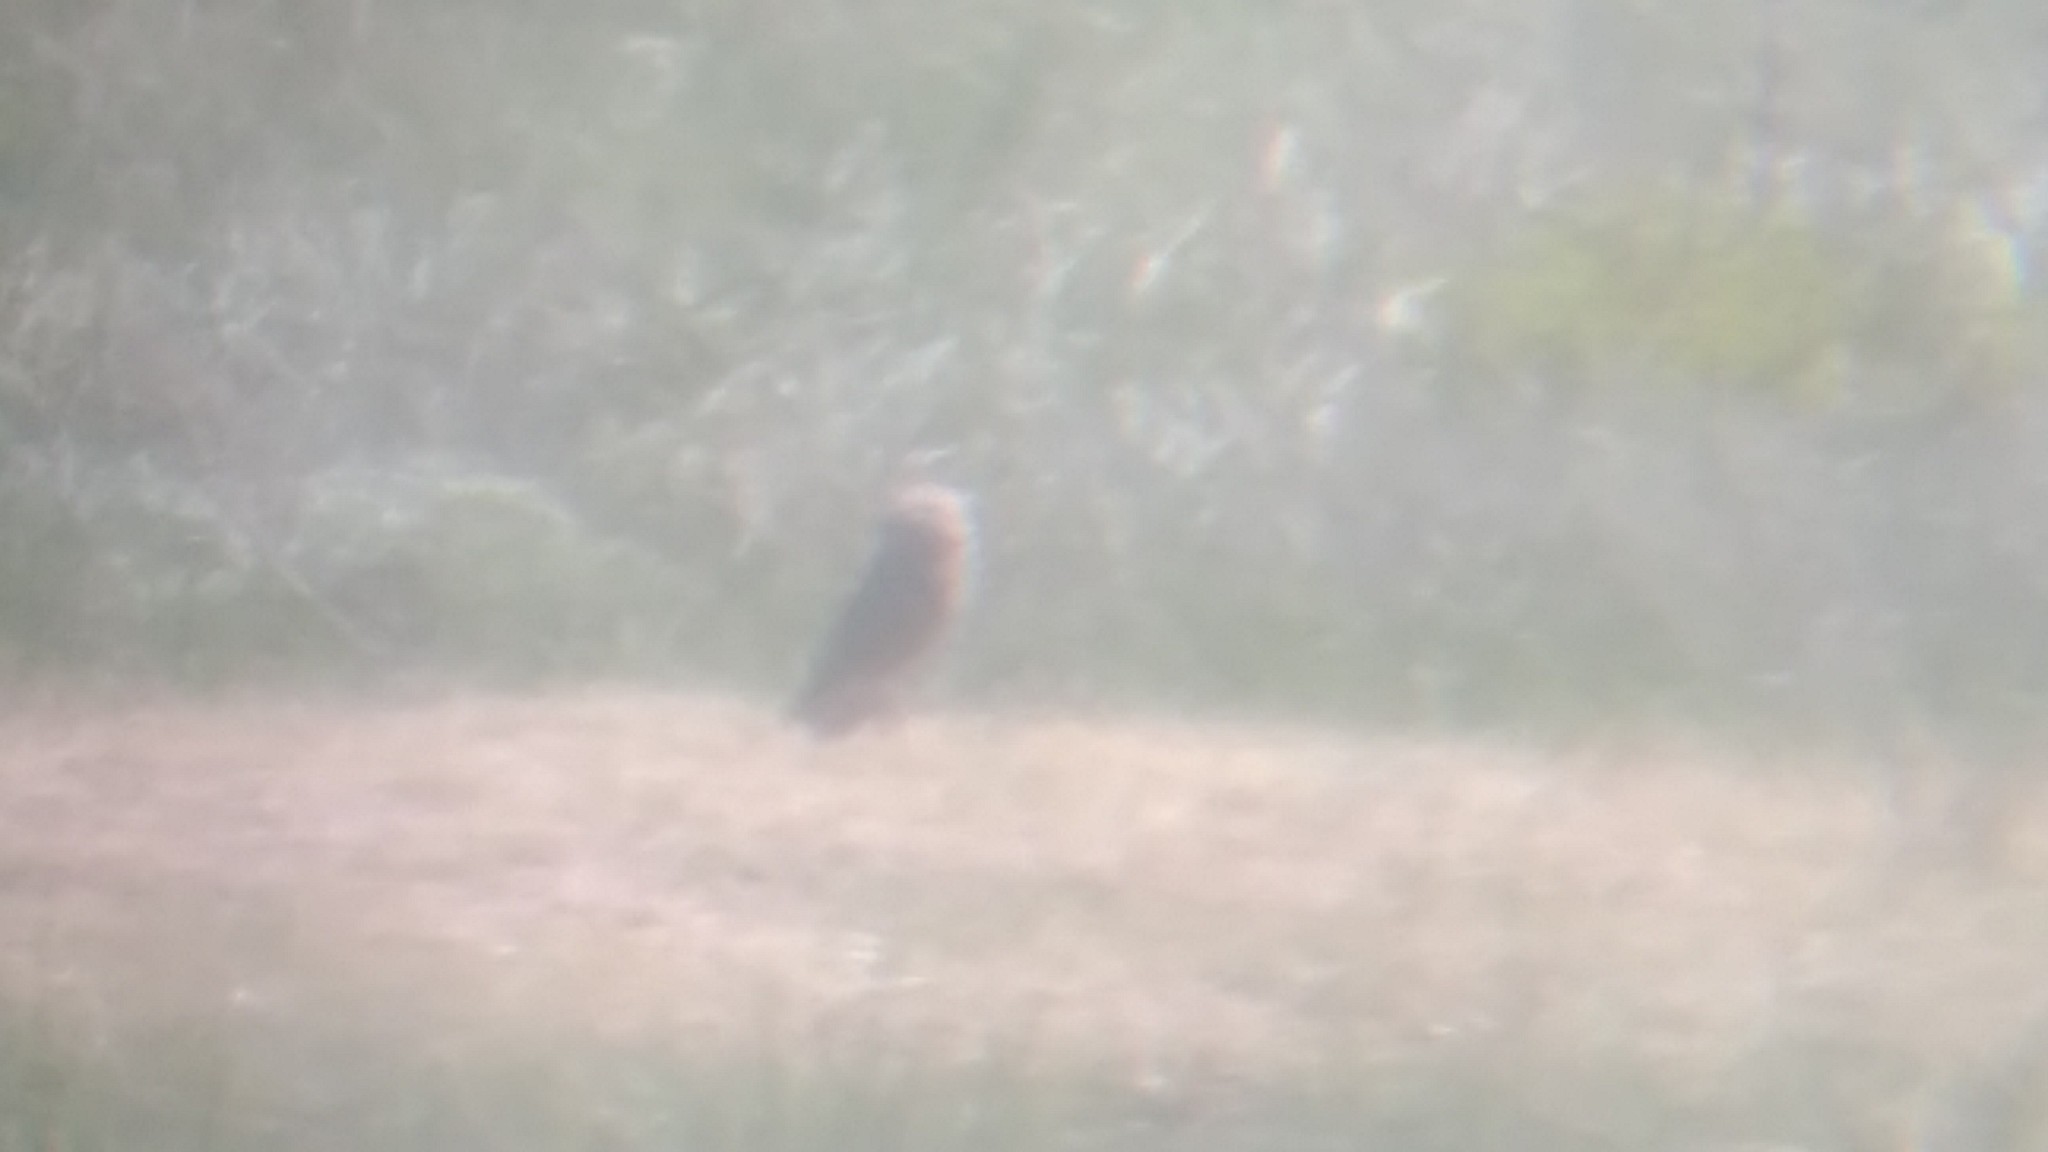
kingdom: Animalia
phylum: Chordata
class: Aves
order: Strigiformes
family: Strigidae
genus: Athene
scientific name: Athene cunicularia
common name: Burrowing owl
